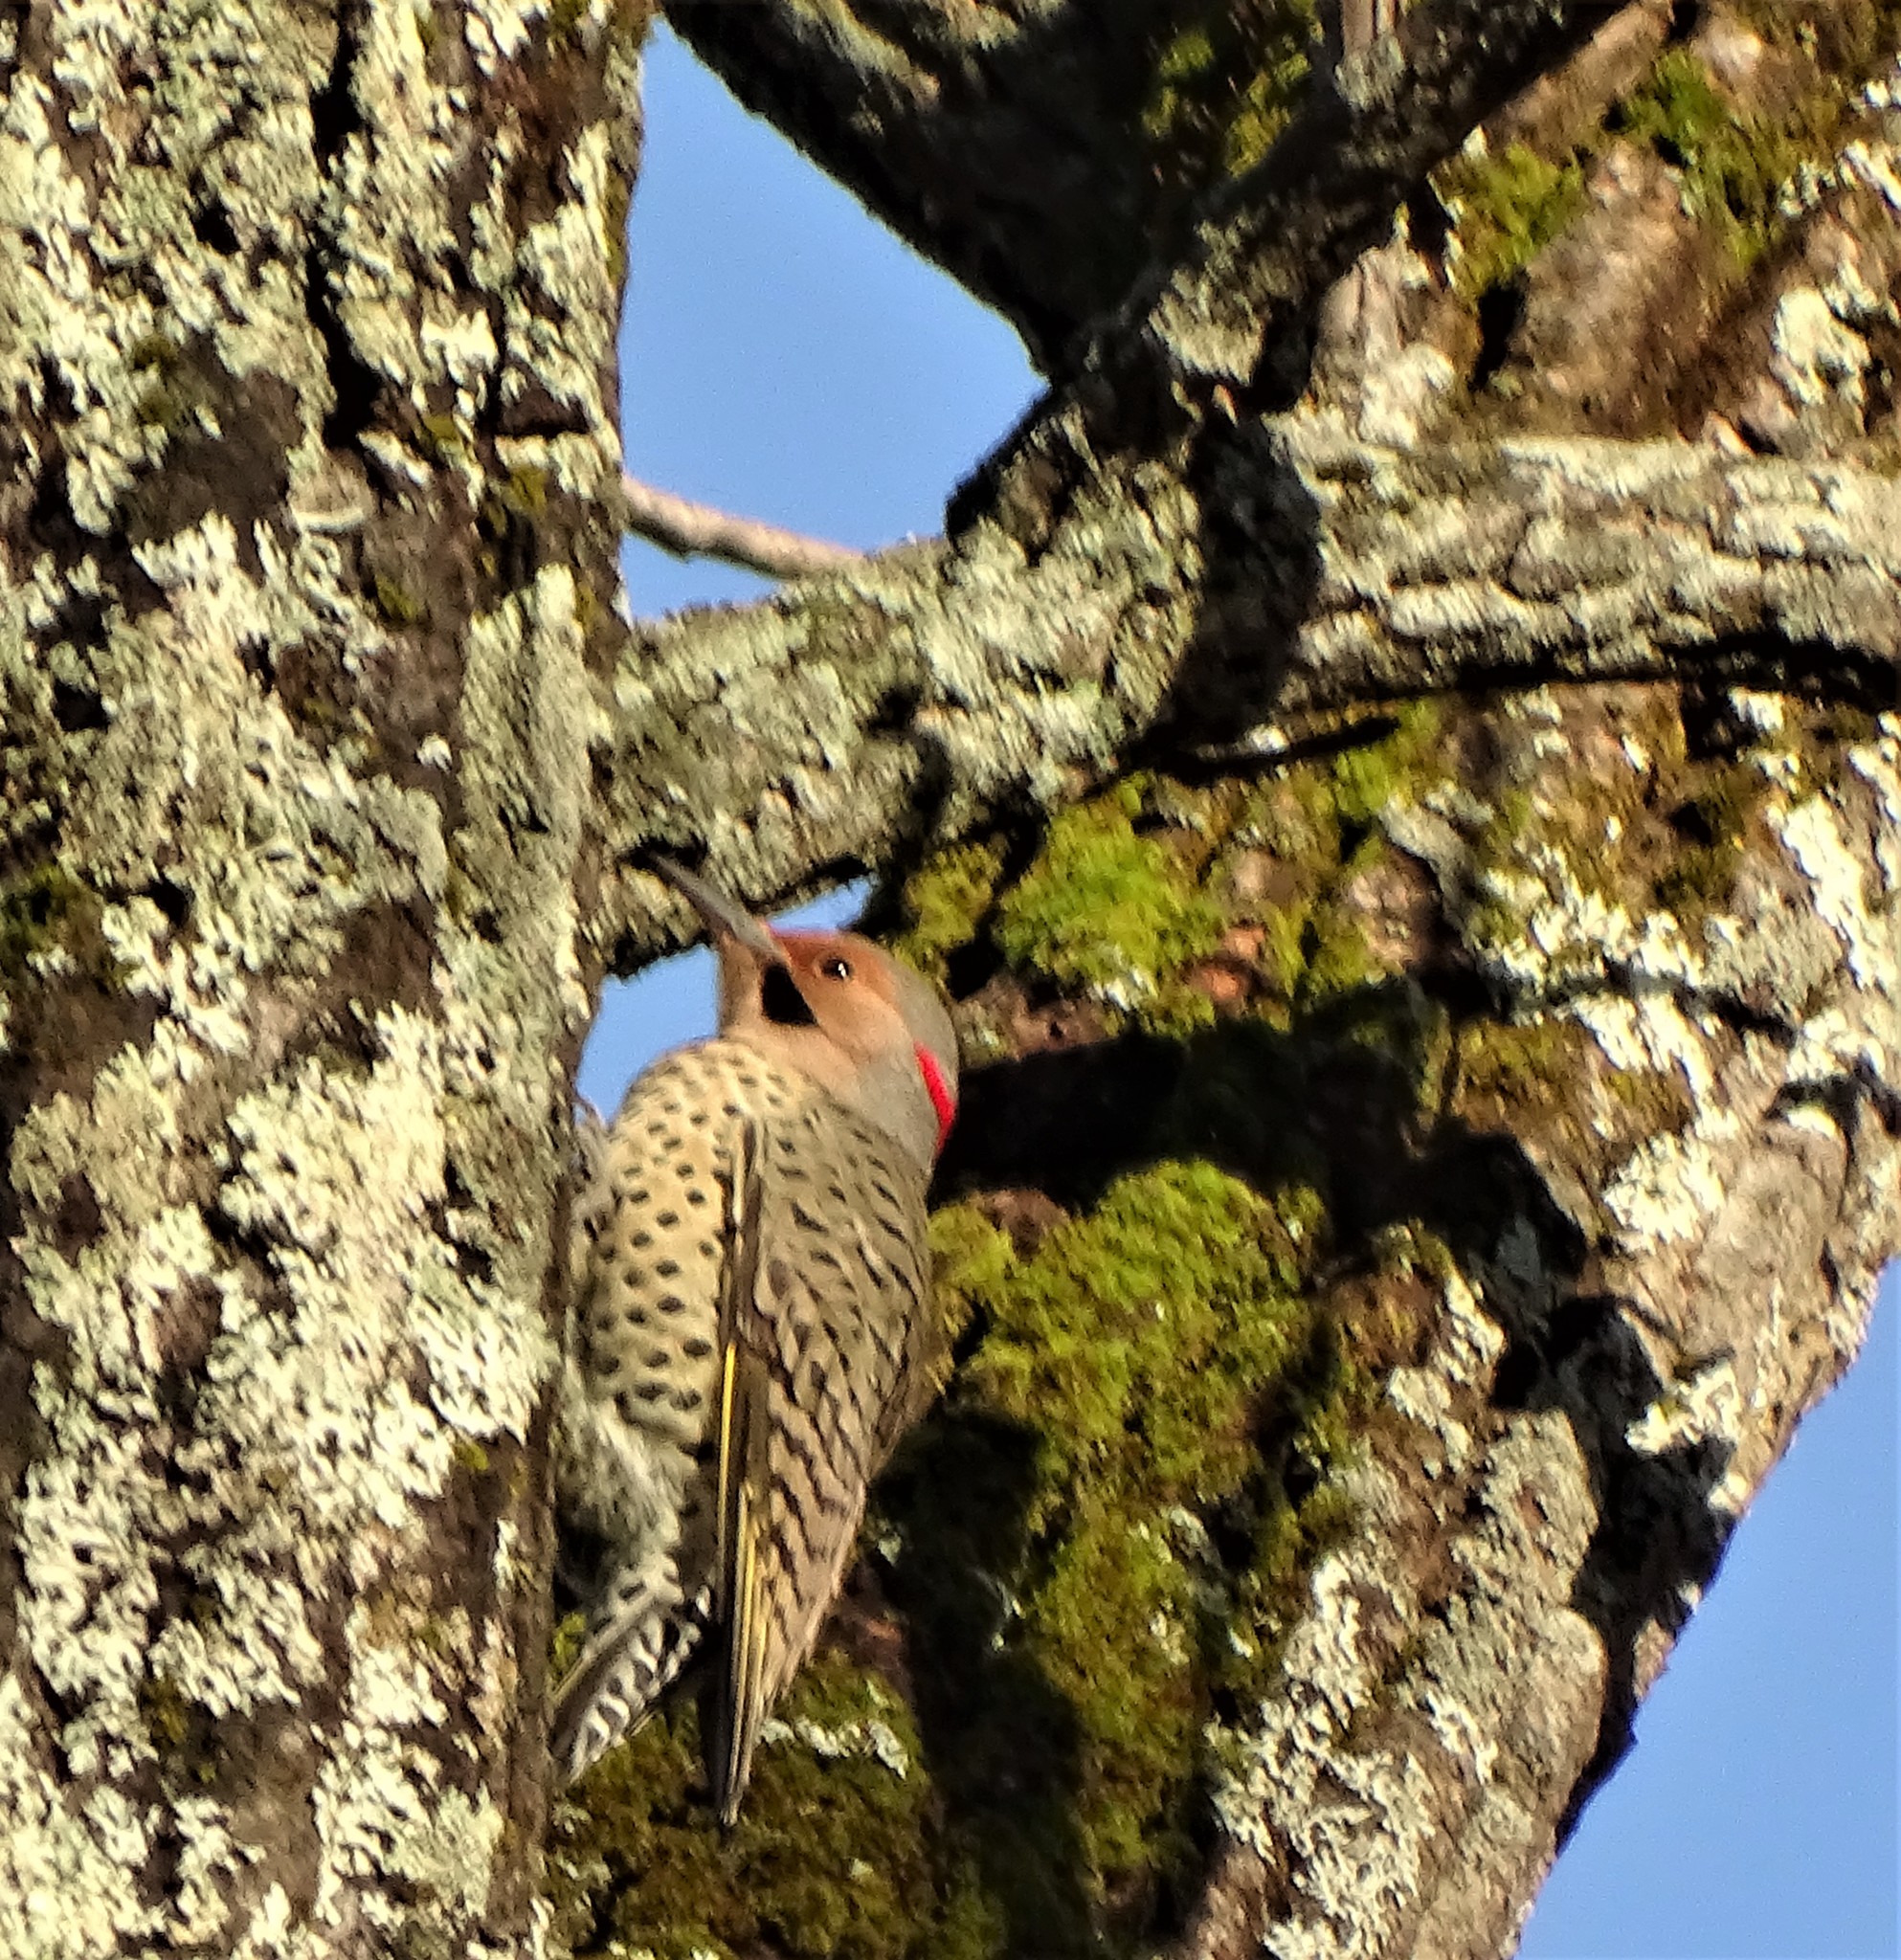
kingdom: Animalia
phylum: Chordata
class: Aves
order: Piciformes
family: Picidae
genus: Colaptes
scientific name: Colaptes auratus
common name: Northern flicker
